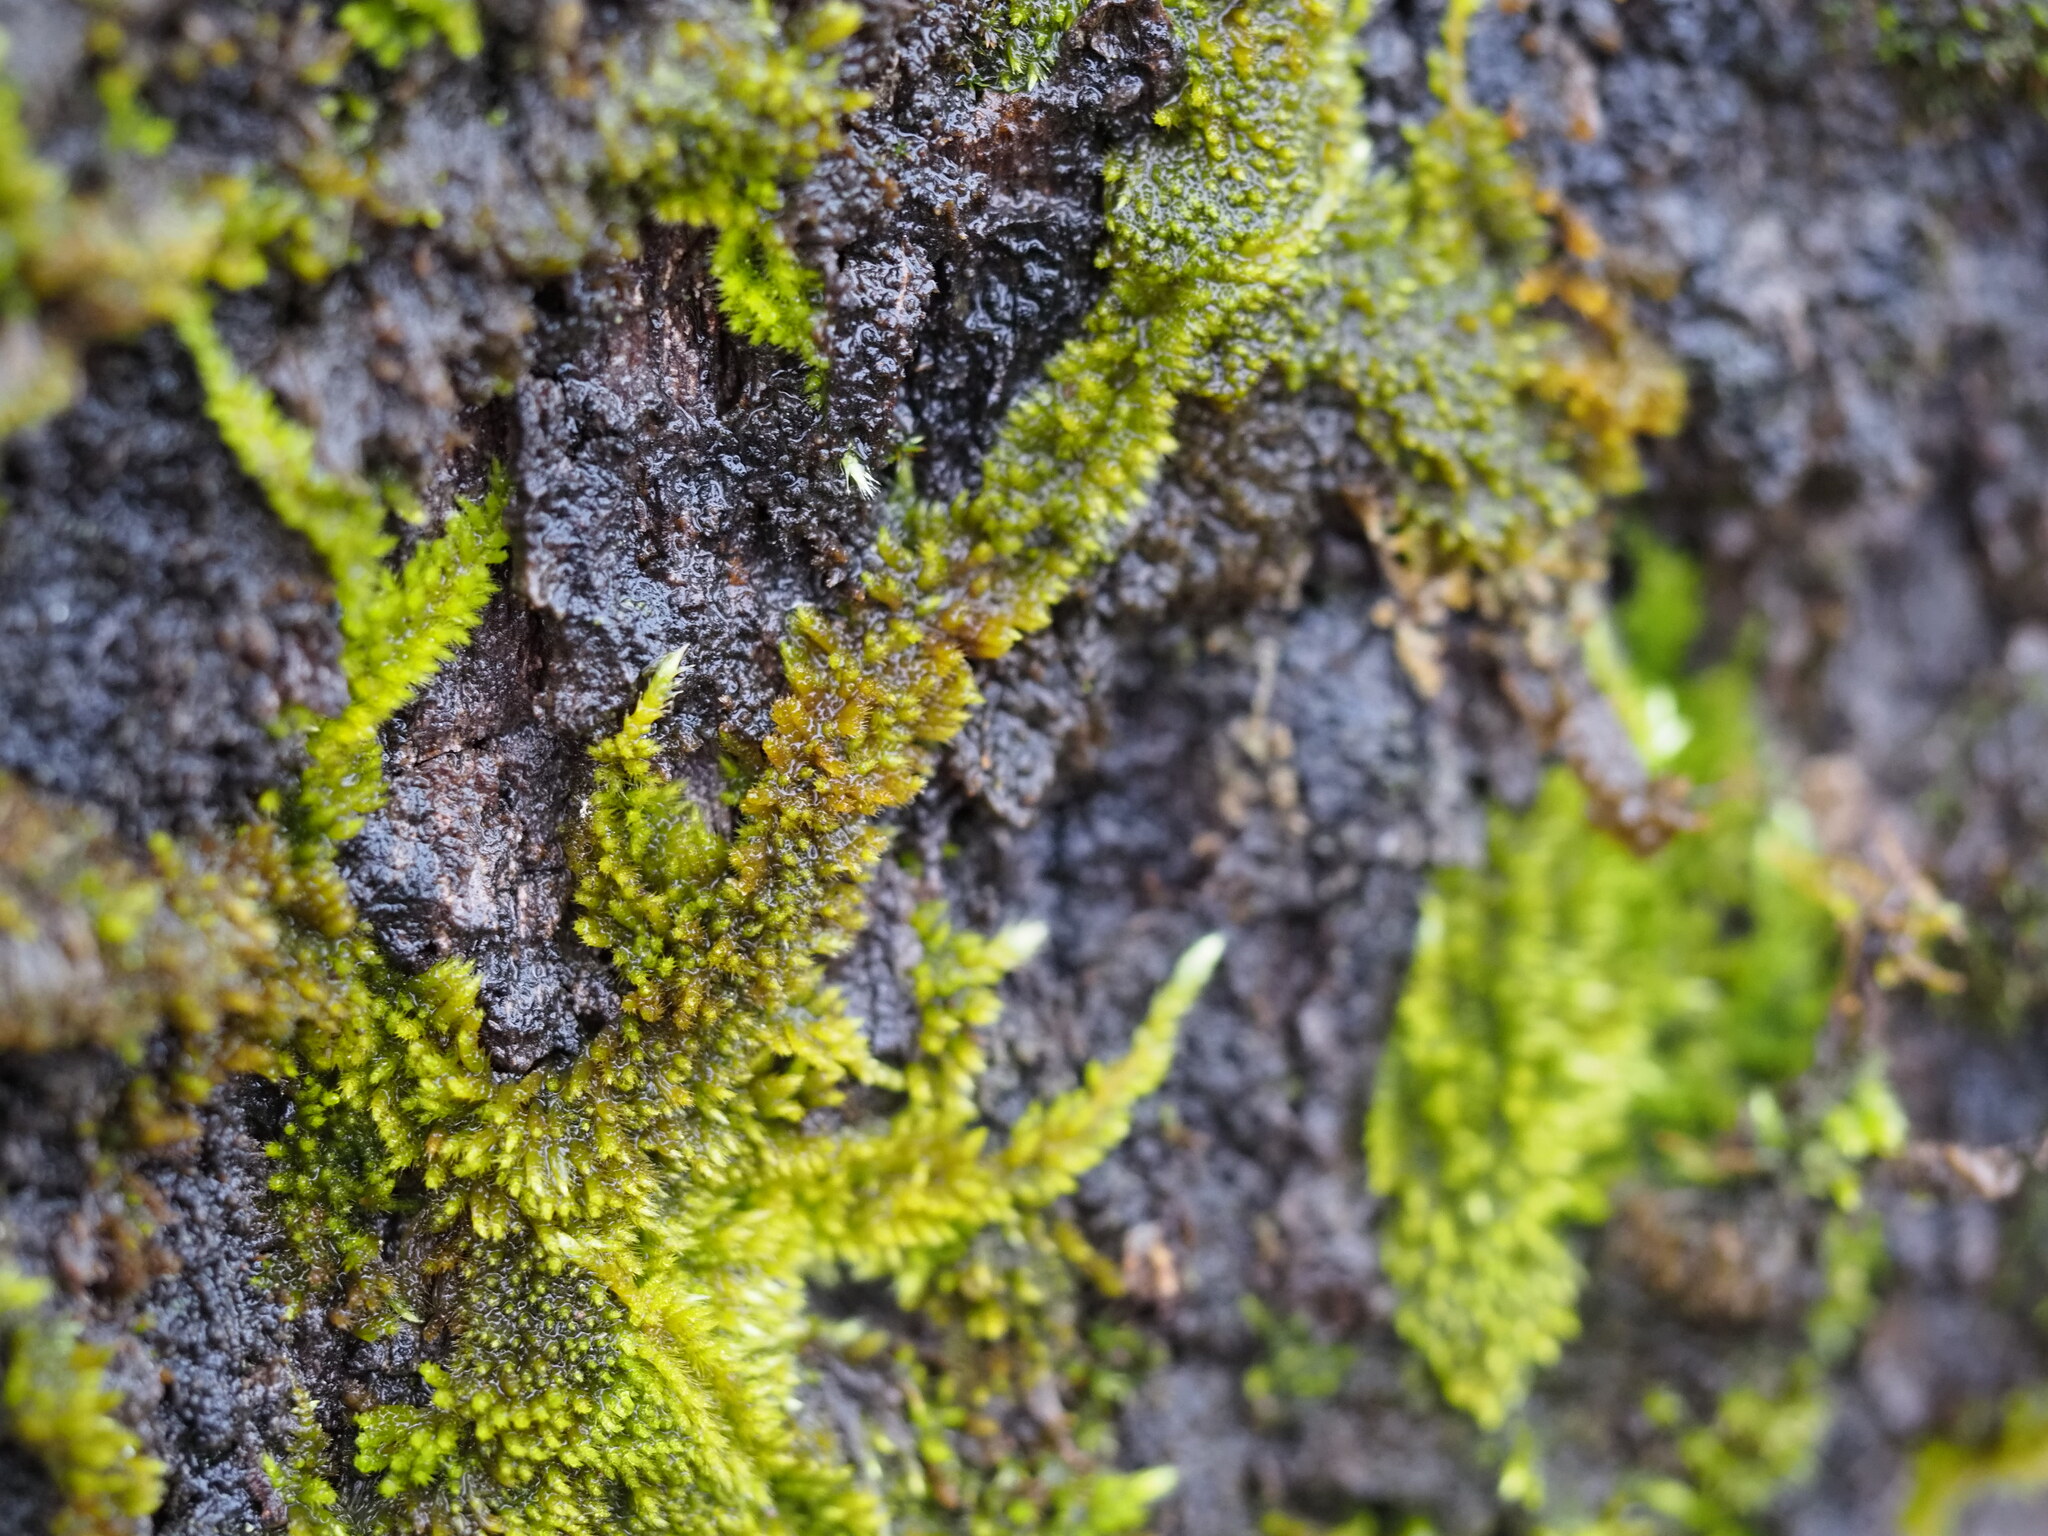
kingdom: Plantae
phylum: Bryophyta
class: Bryopsida
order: Hypnales
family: Brachytheciaceae
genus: Homalothecium
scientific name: Homalothecium nuttallii
